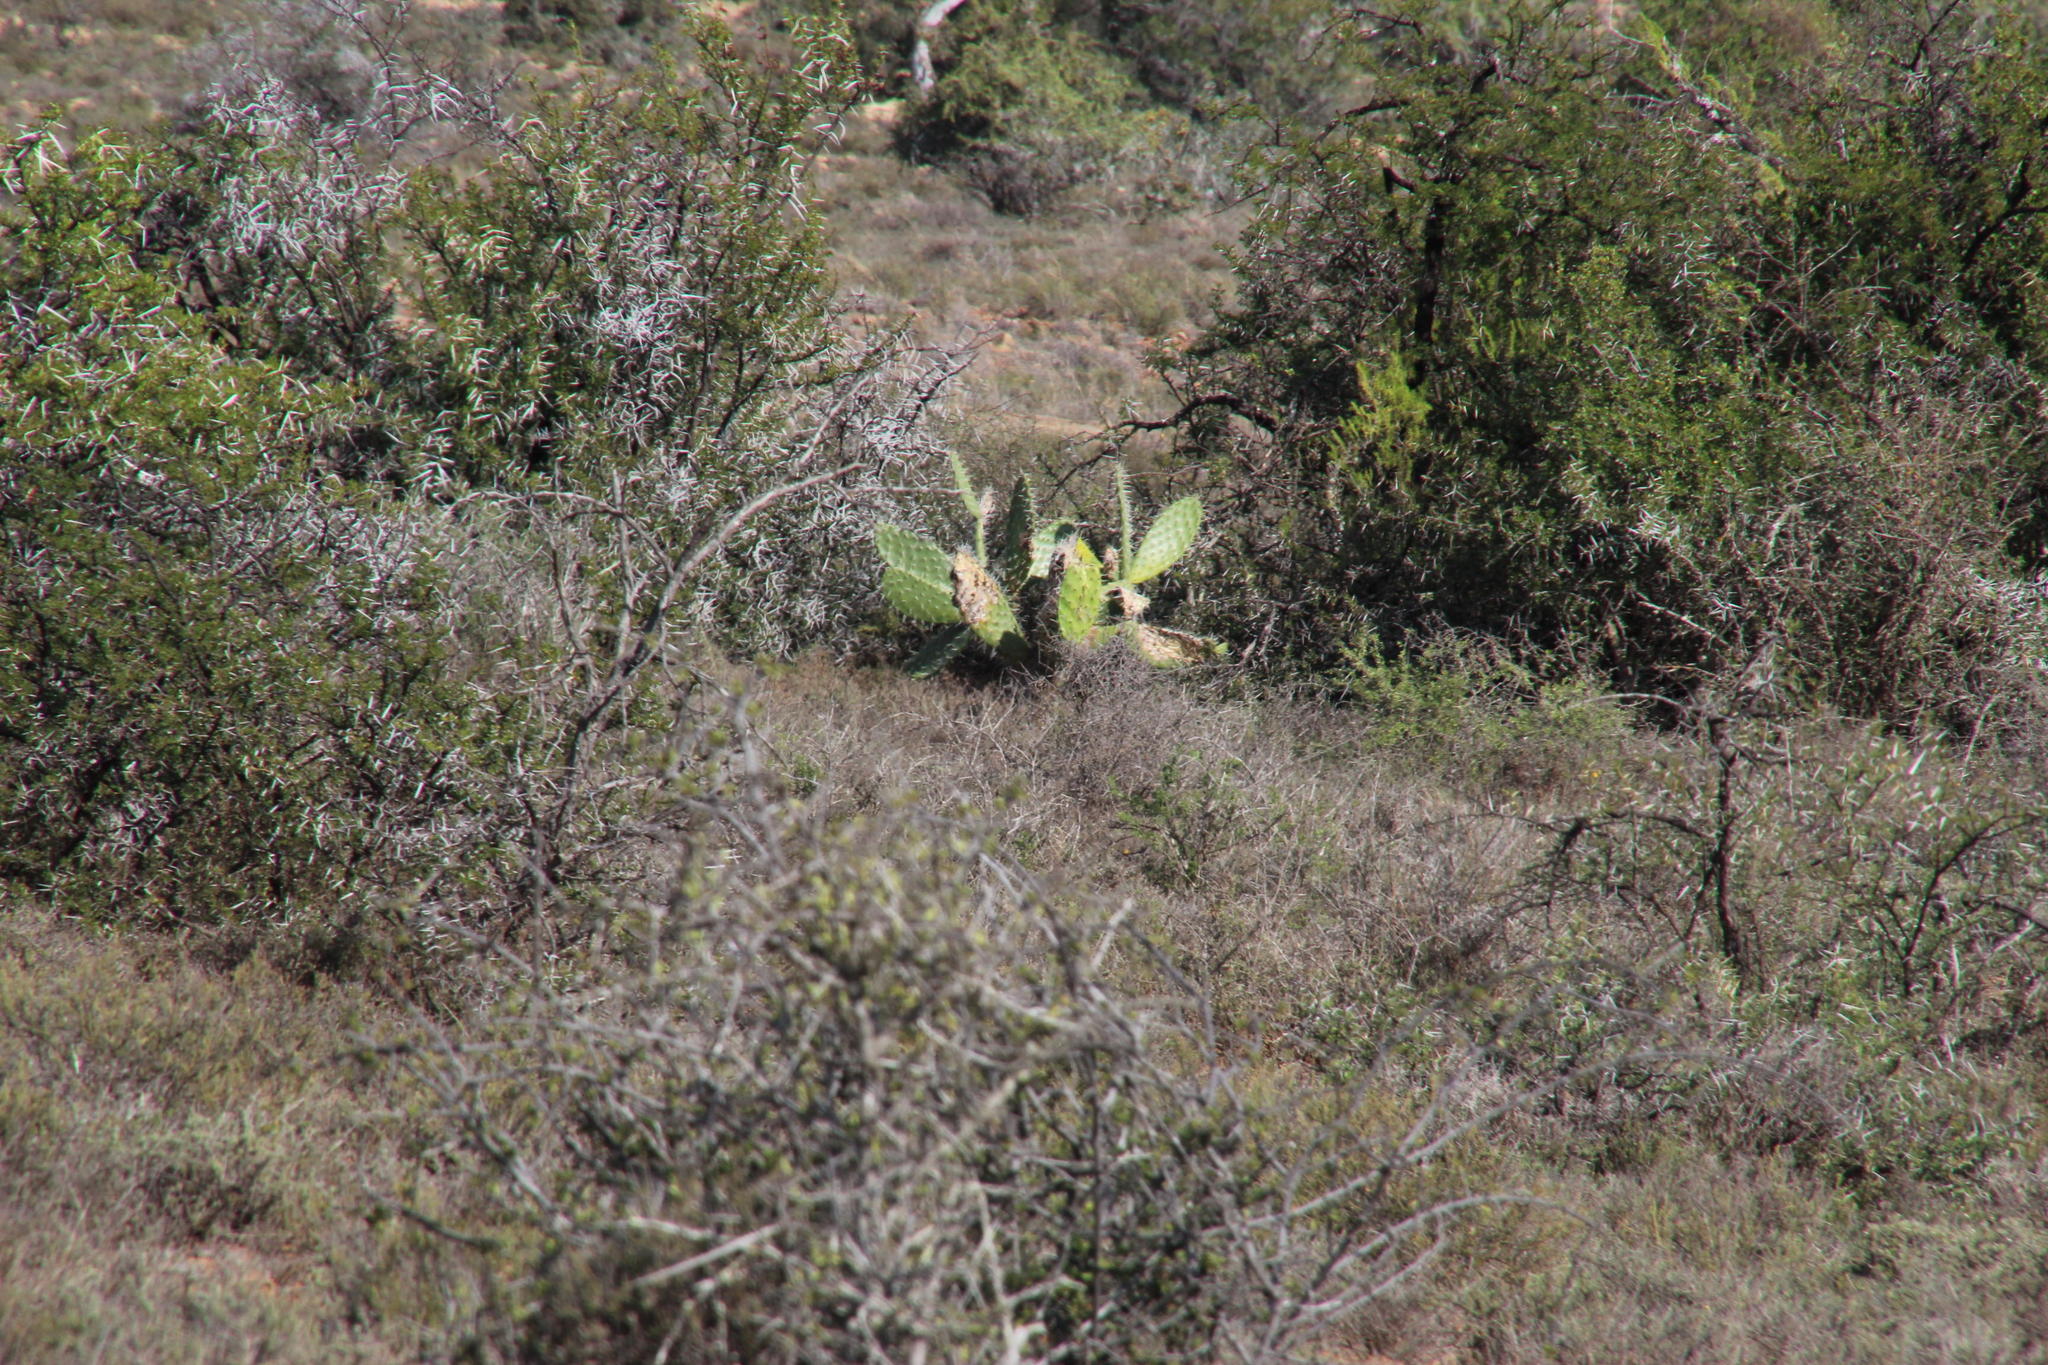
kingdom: Plantae
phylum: Tracheophyta
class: Magnoliopsida
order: Caryophyllales
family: Cactaceae
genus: Opuntia
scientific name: Opuntia ficus-indica
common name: Barbary fig
